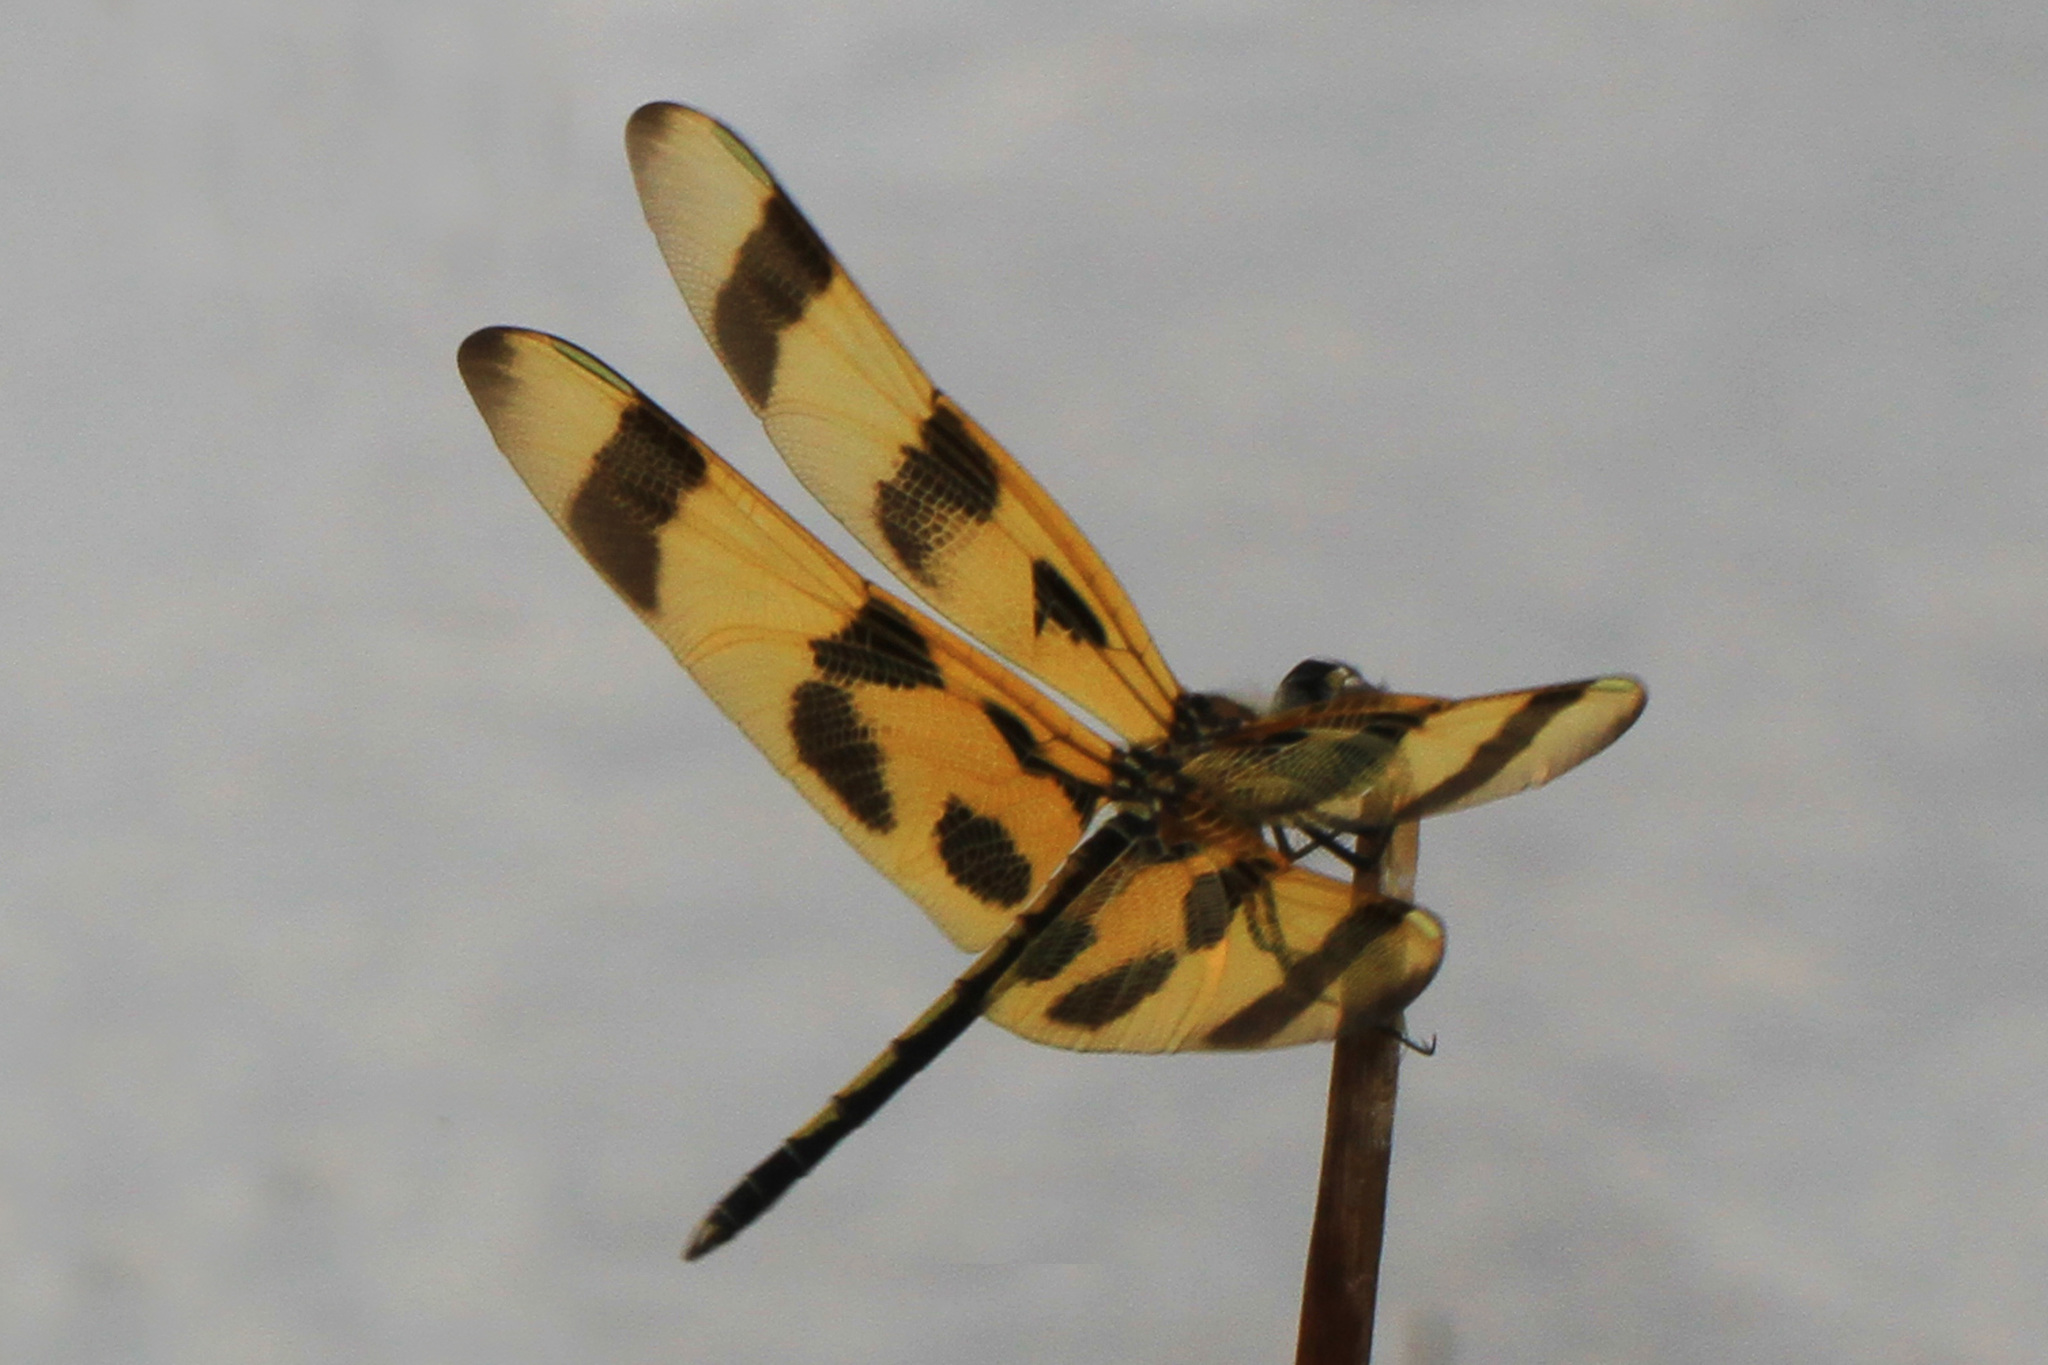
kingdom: Animalia
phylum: Arthropoda
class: Insecta
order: Odonata
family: Libellulidae
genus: Celithemis
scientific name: Celithemis eponina
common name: Halloween pennant
